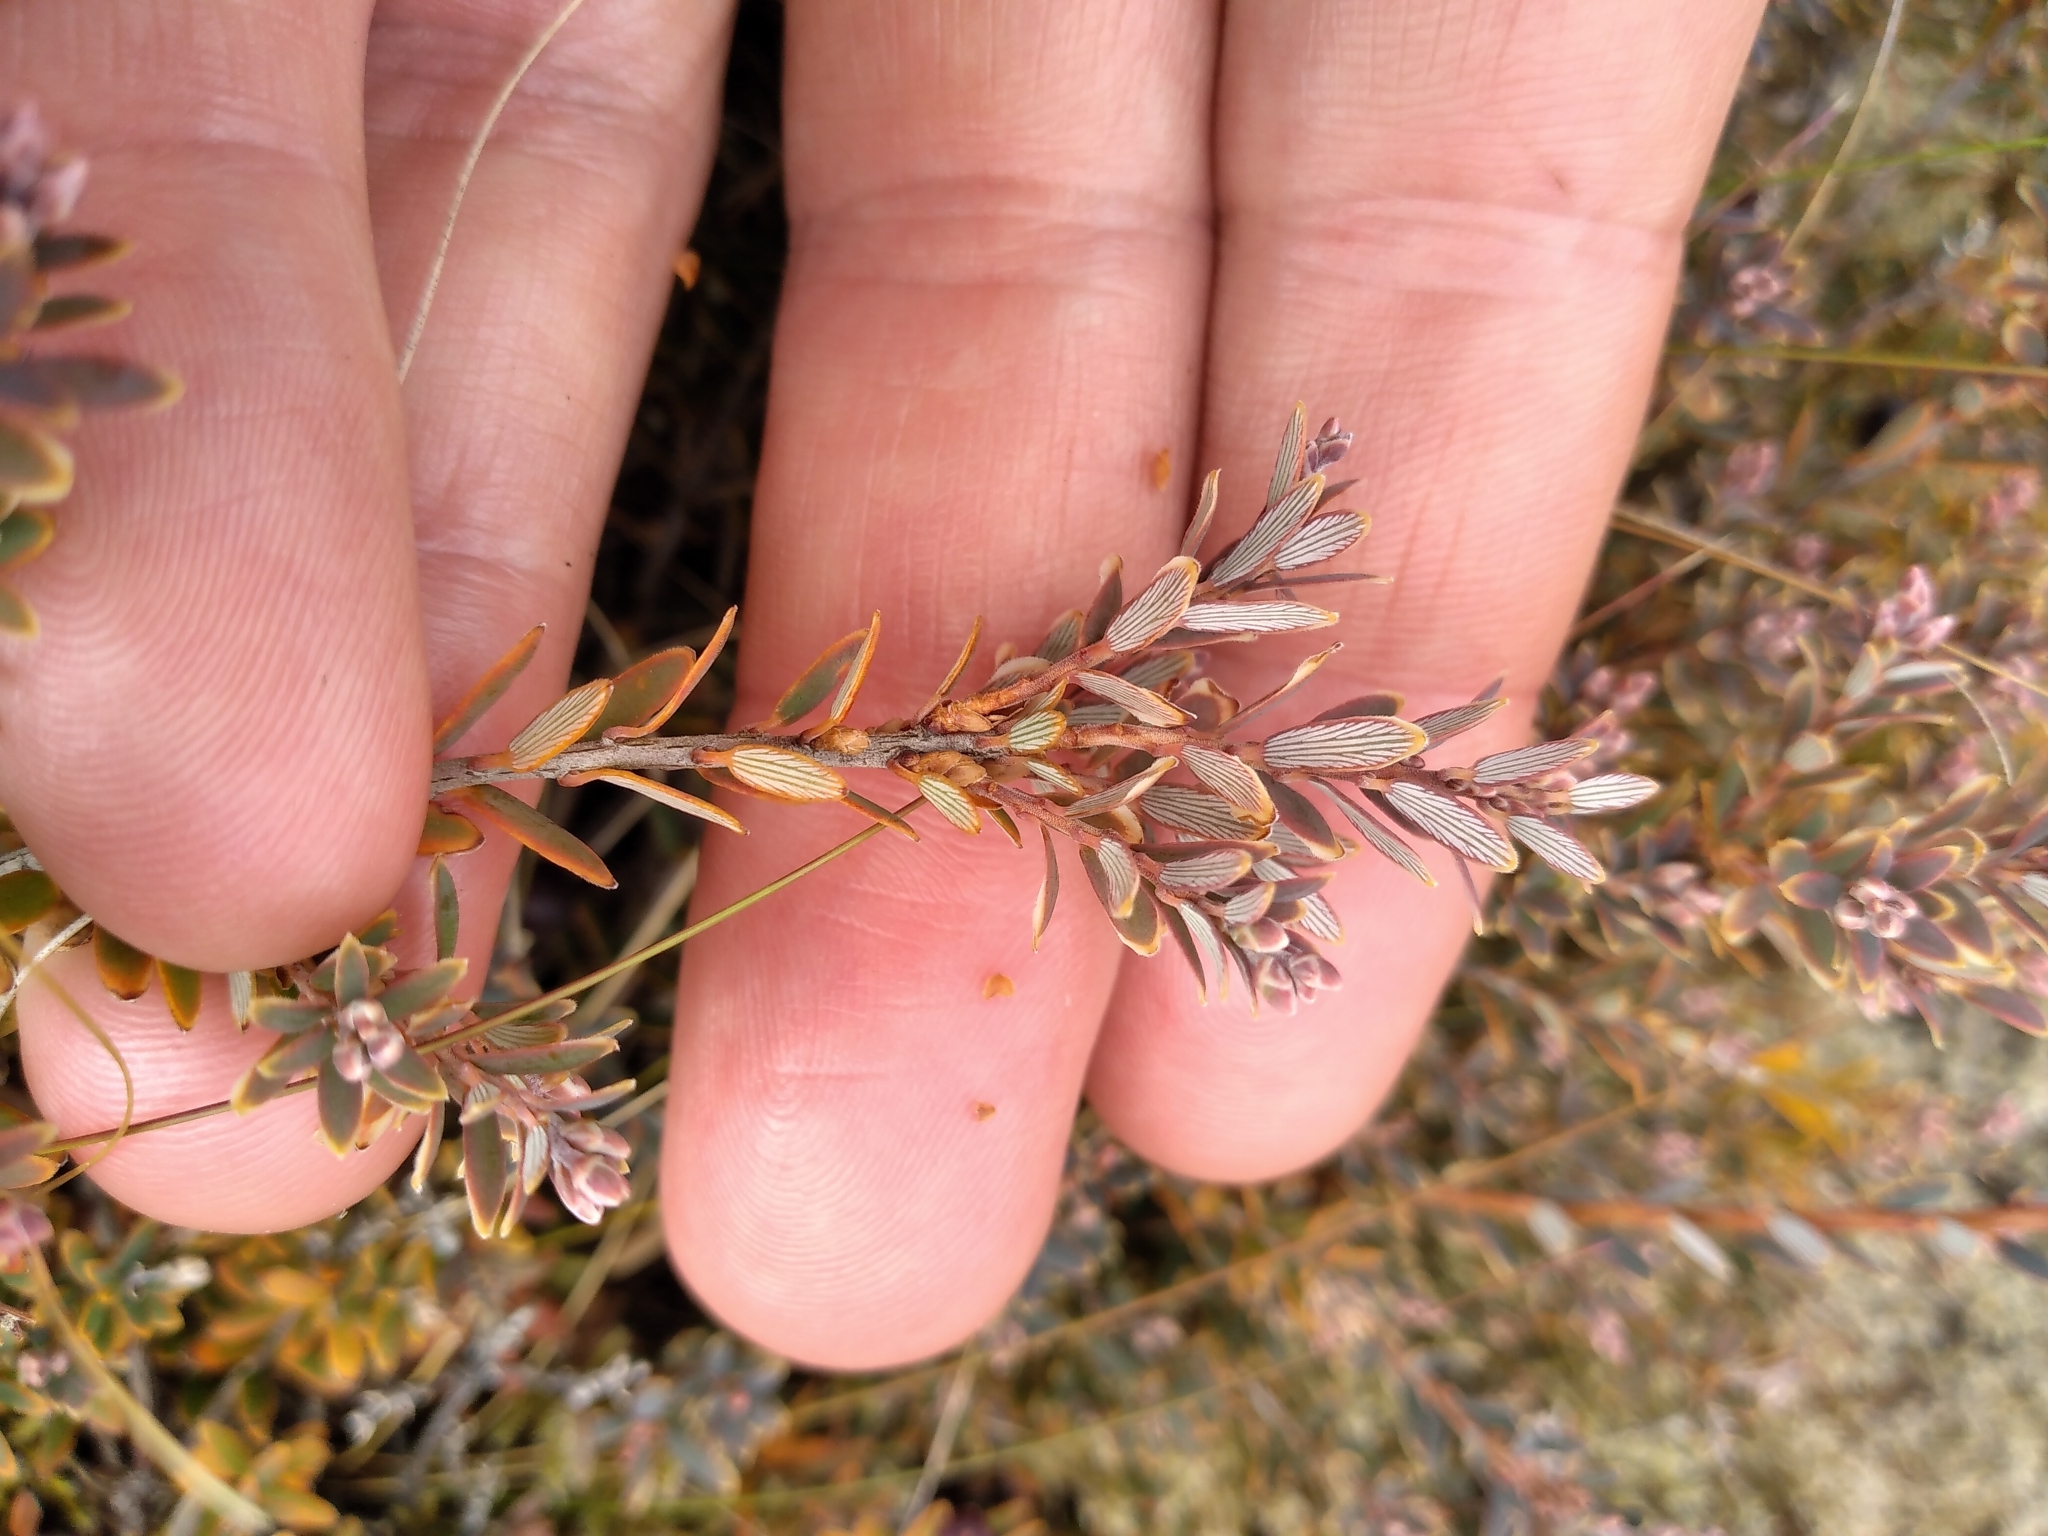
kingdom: Plantae
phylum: Tracheophyta
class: Magnoliopsida
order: Ericales
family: Ericaceae
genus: Acrothamnus
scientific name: Acrothamnus colensoi
